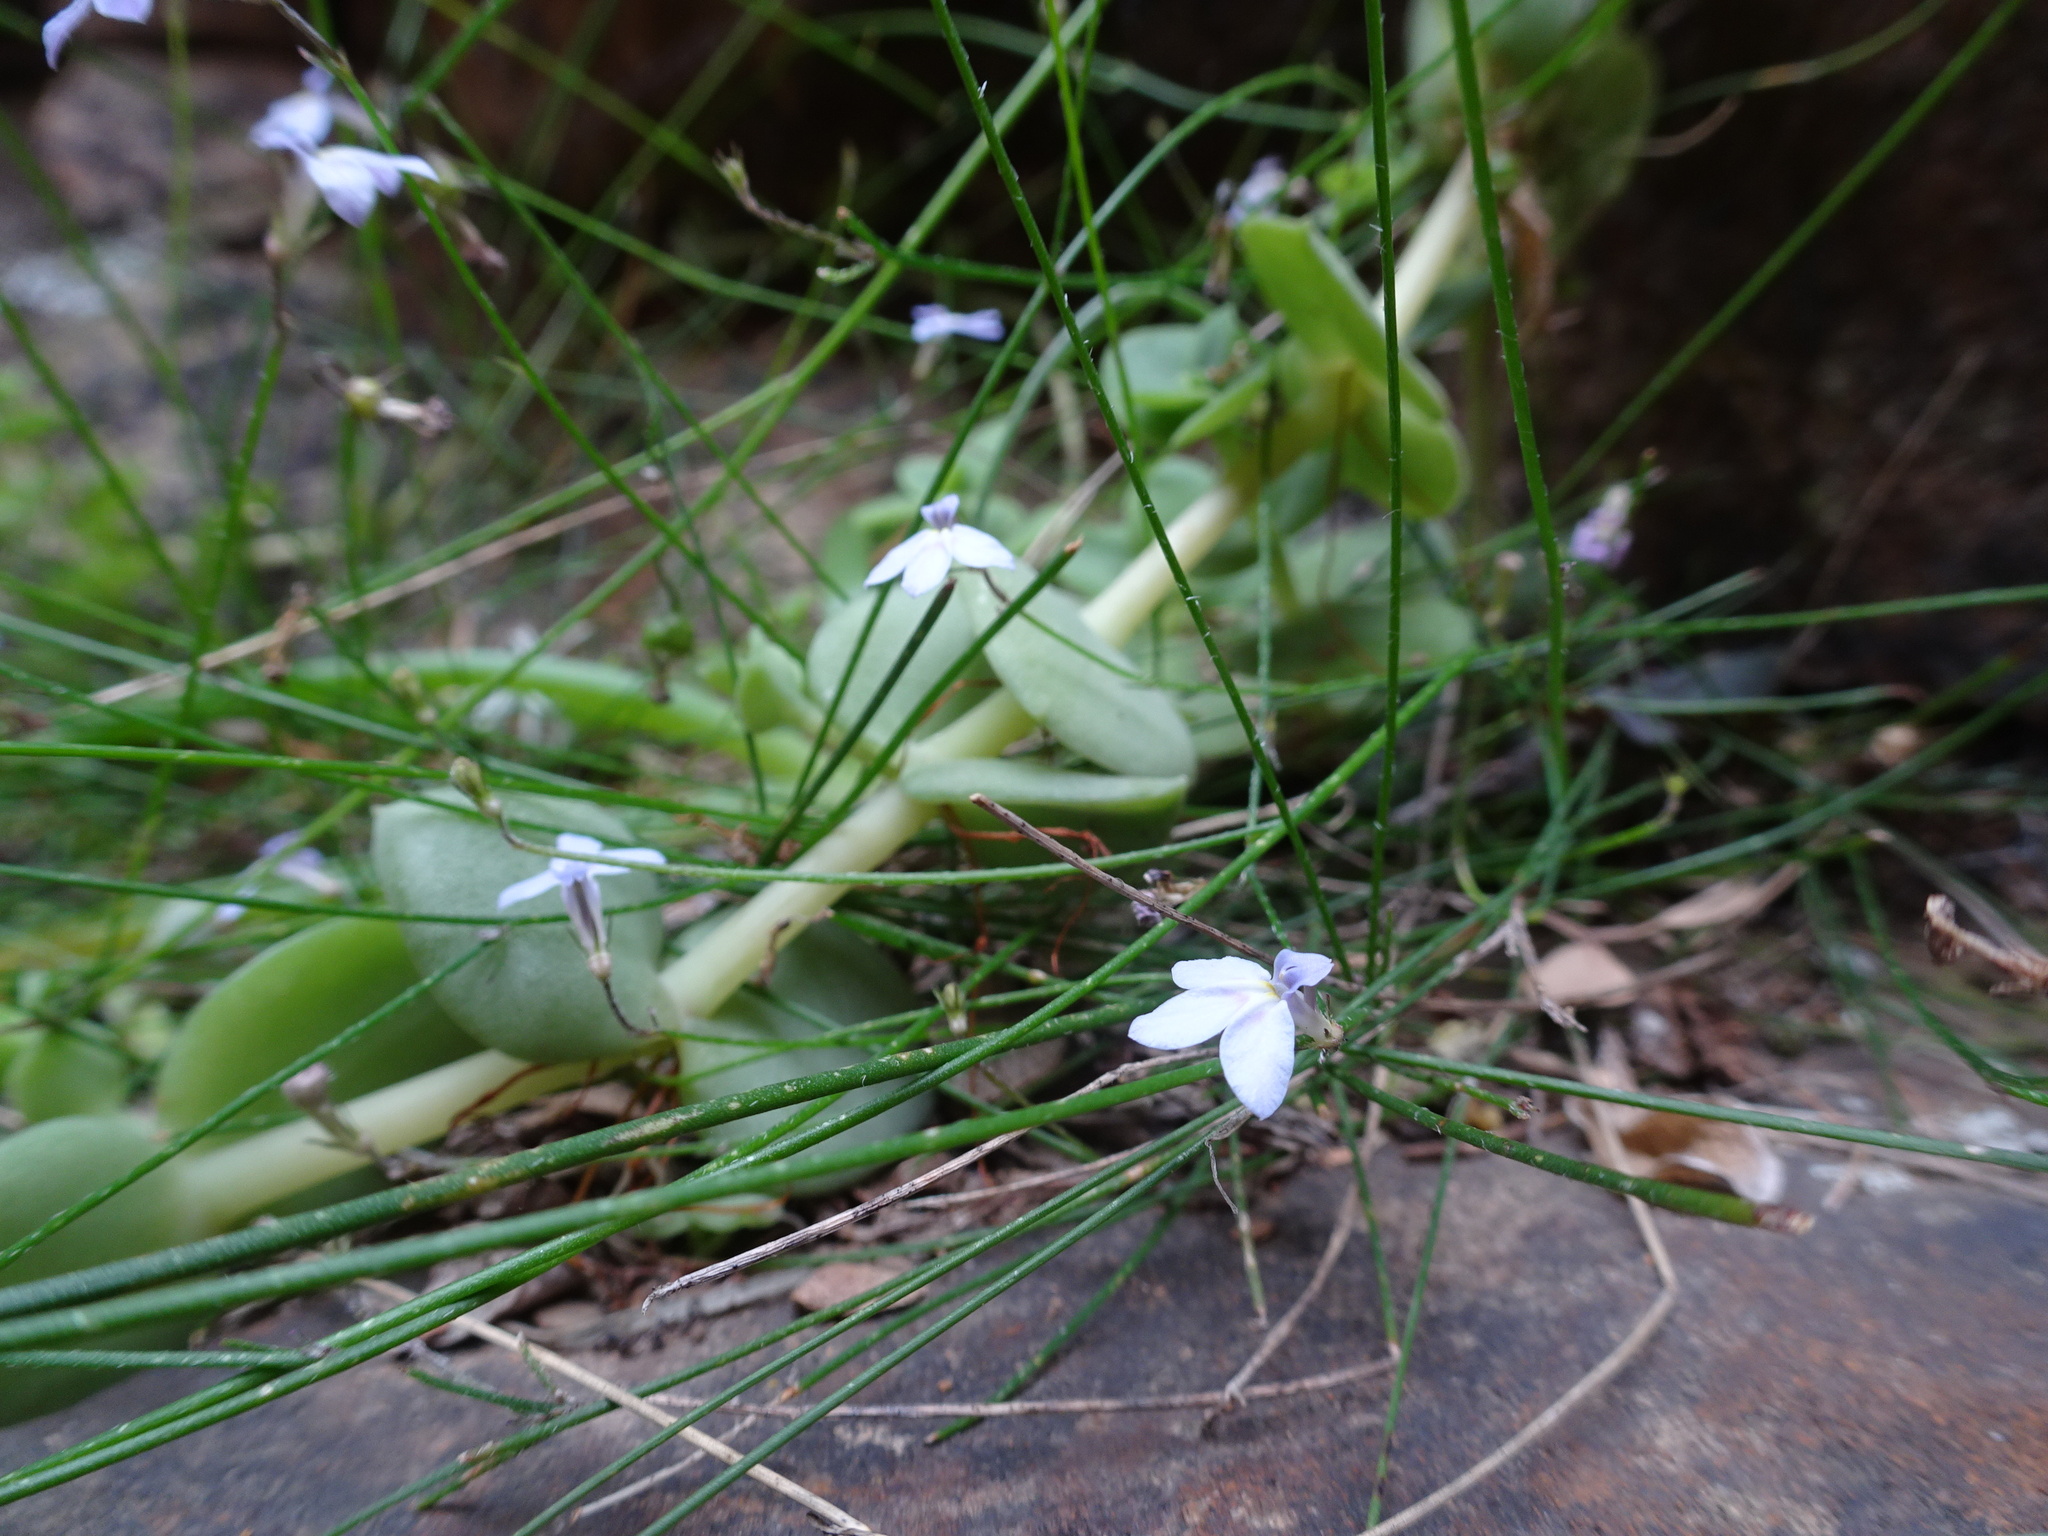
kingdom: Plantae
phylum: Tracheophyta
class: Magnoliopsida
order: Asterales
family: Campanulaceae
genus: Lobelia
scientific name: Lobelia patula
